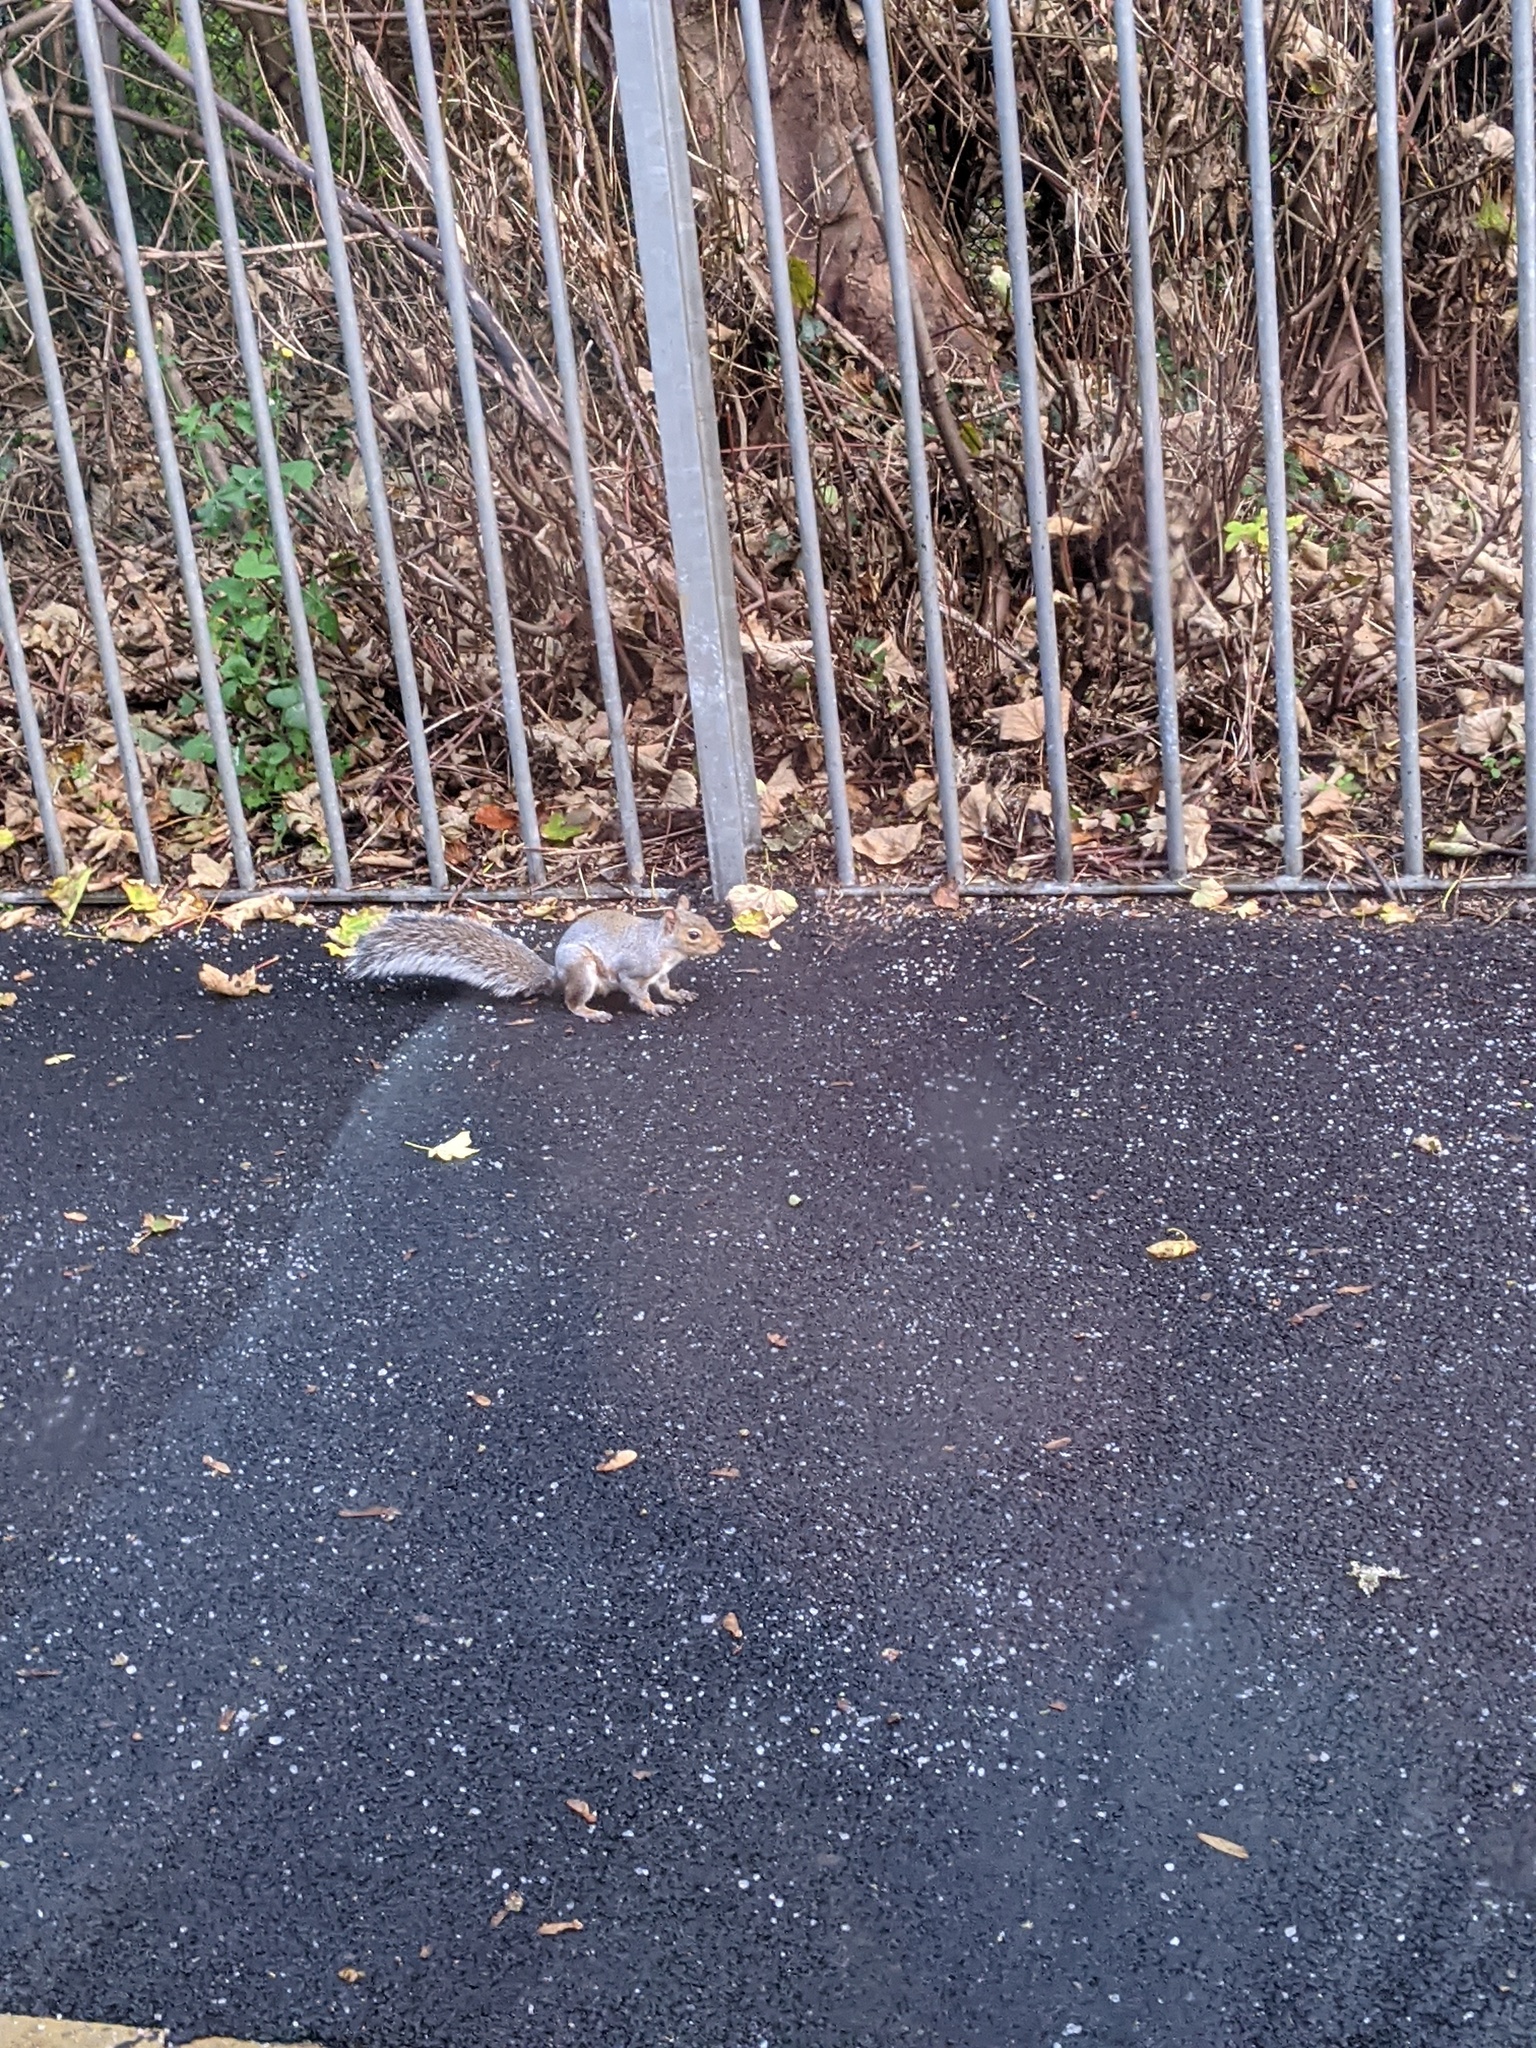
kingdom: Animalia
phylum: Chordata
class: Mammalia
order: Rodentia
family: Sciuridae
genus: Sciurus
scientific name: Sciurus carolinensis
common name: Eastern gray squirrel
